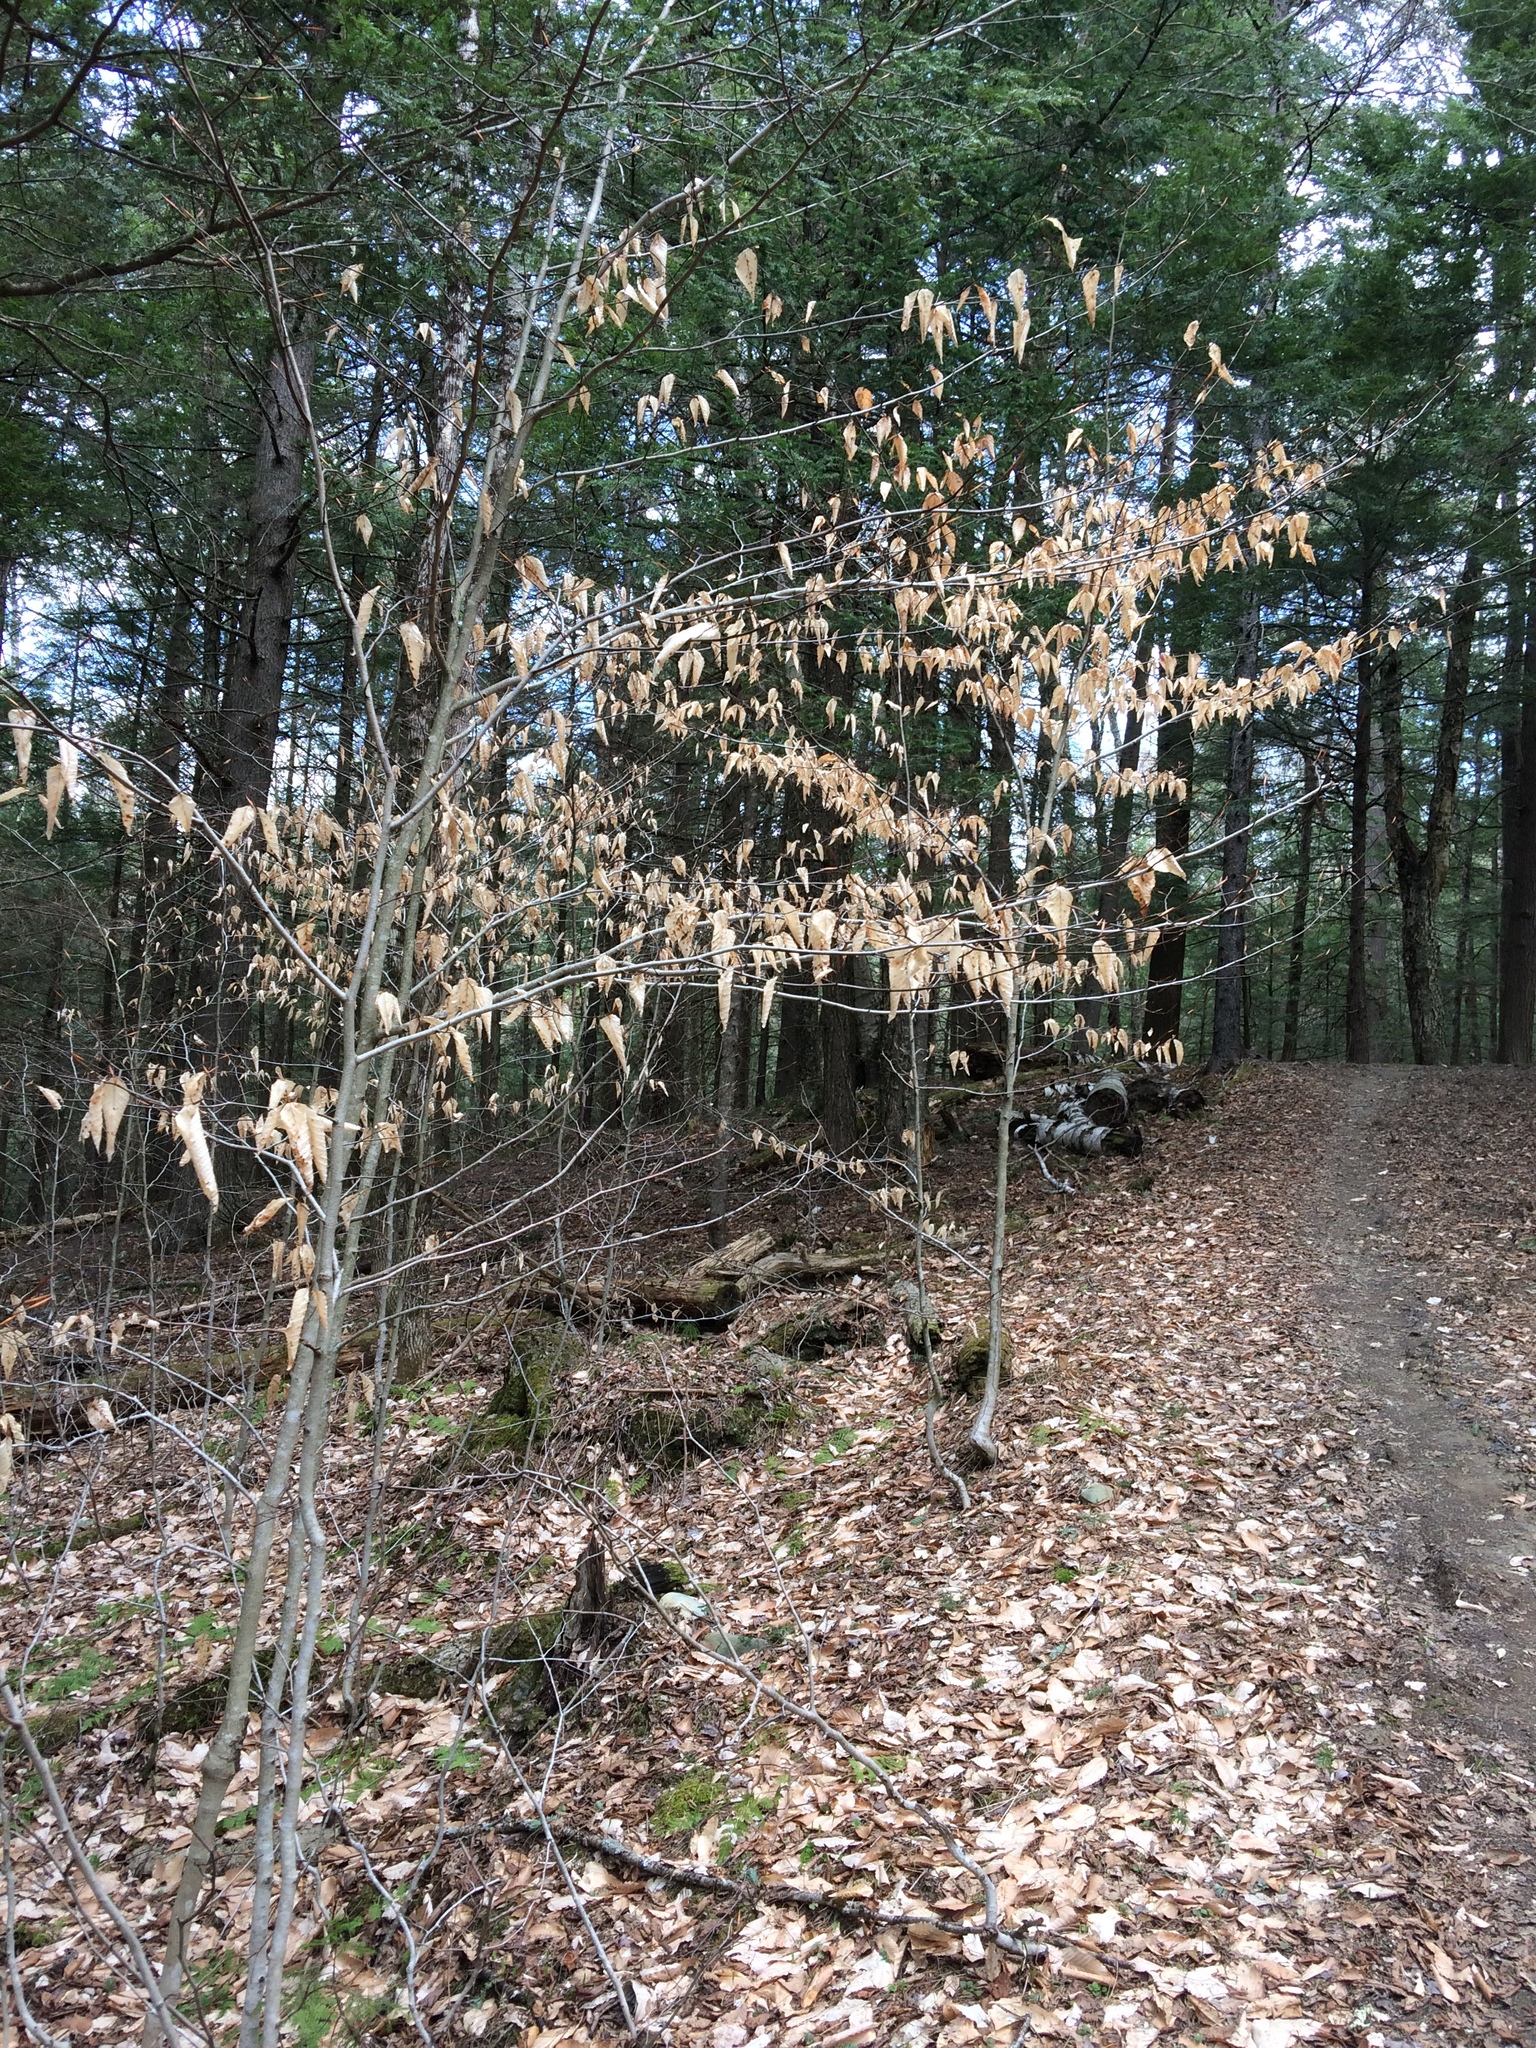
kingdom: Plantae
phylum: Tracheophyta
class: Magnoliopsida
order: Fagales
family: Fagaceae
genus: Fagus
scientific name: Fagus grandifolia
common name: American beech
